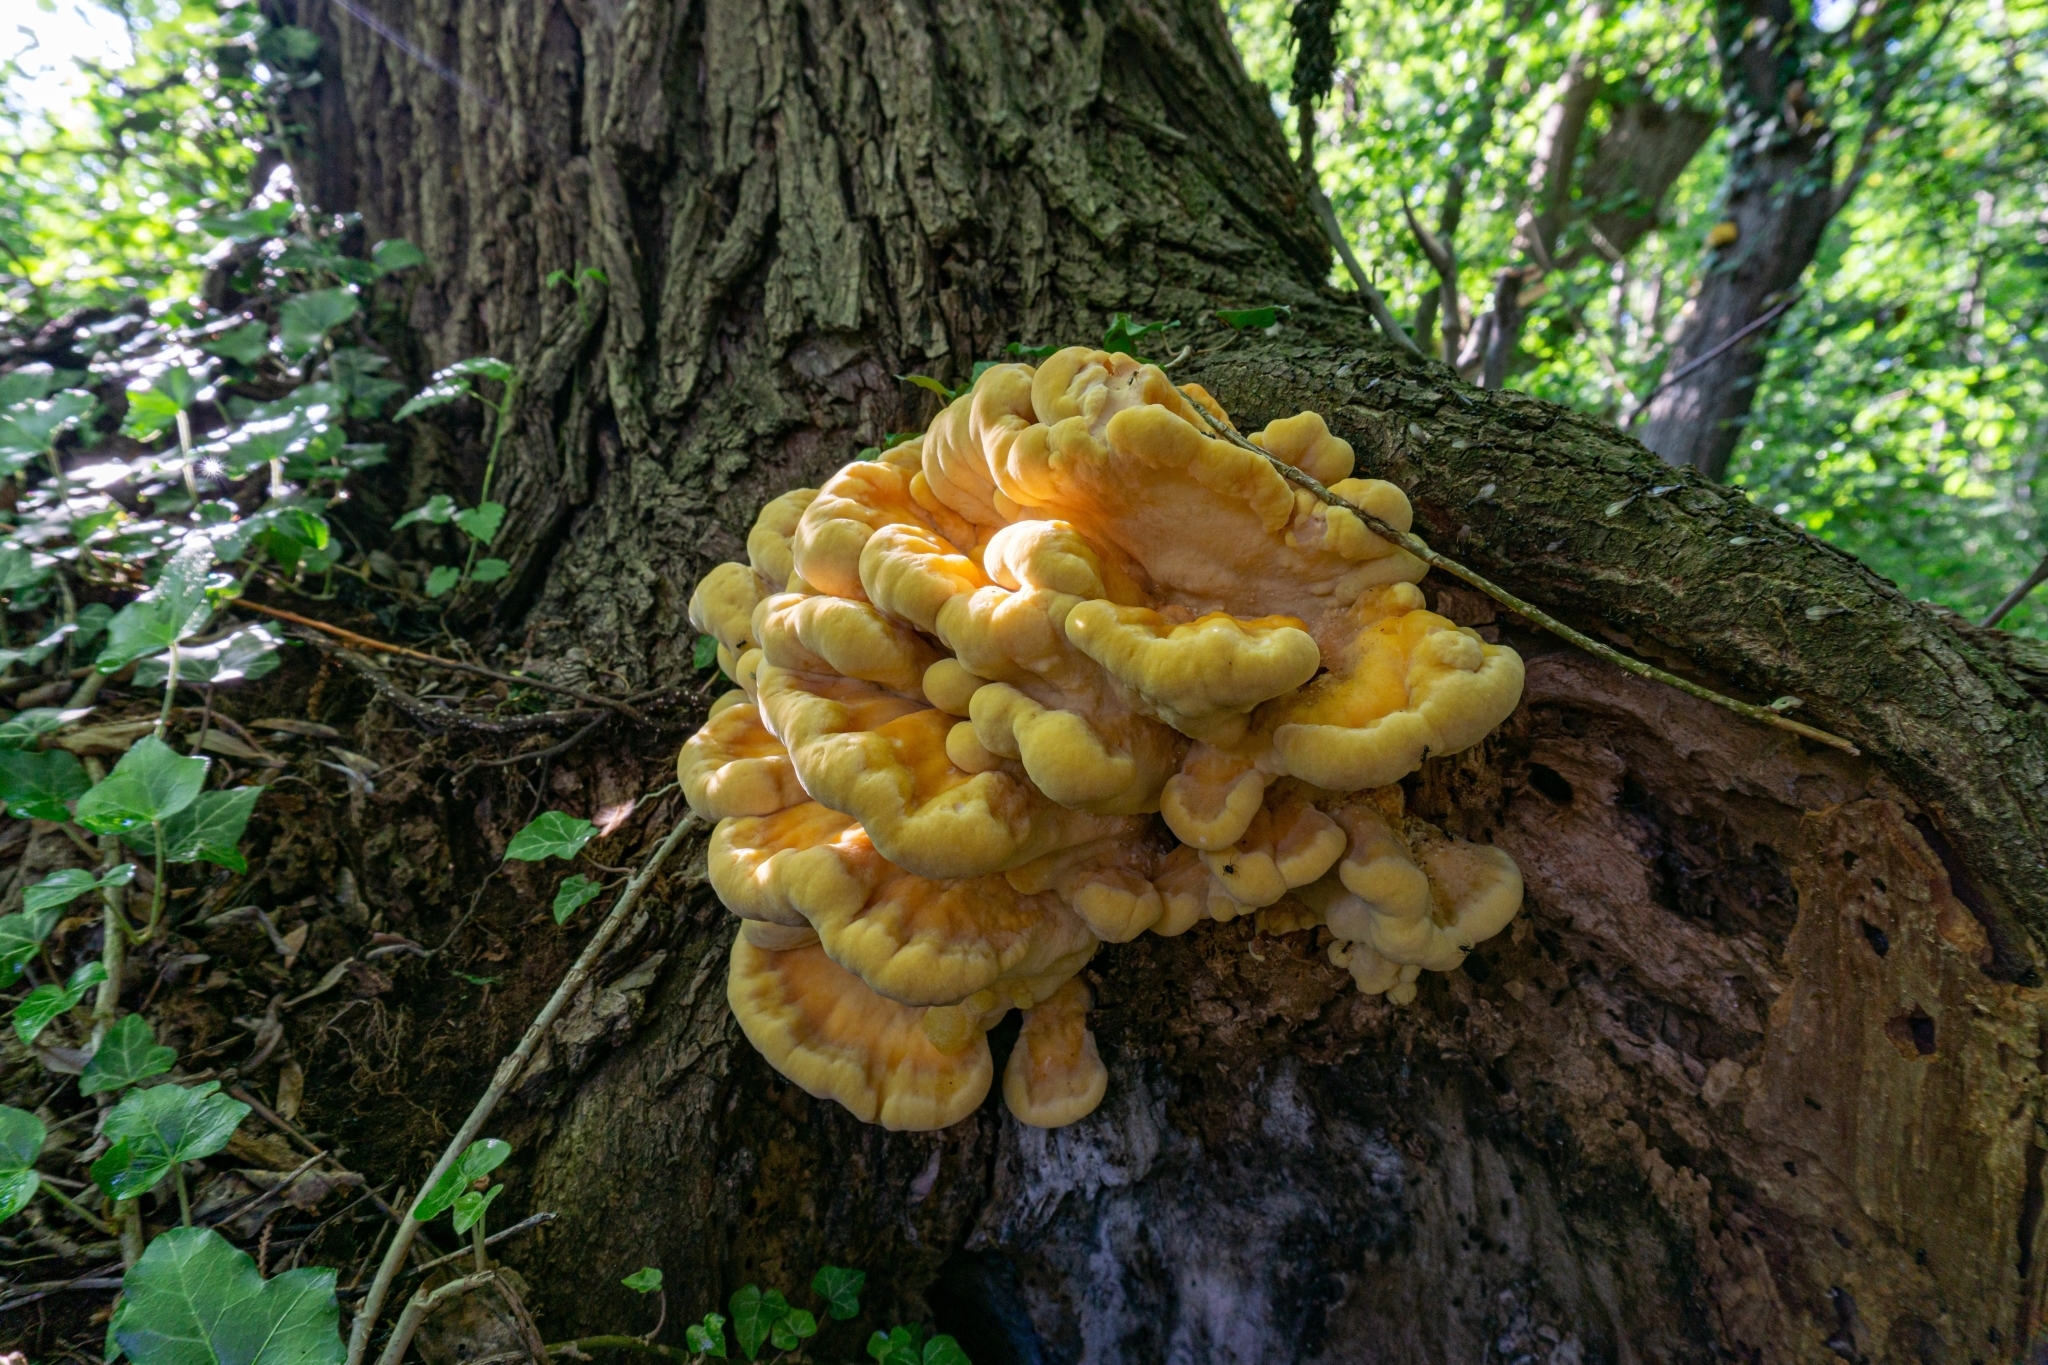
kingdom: Fungi
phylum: Basidiomycota
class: Agaricomycetes
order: Polyporales
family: Laetiporaceae
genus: Laetiporus
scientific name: Laetiporus sulphureus
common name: Chicken of the woods
